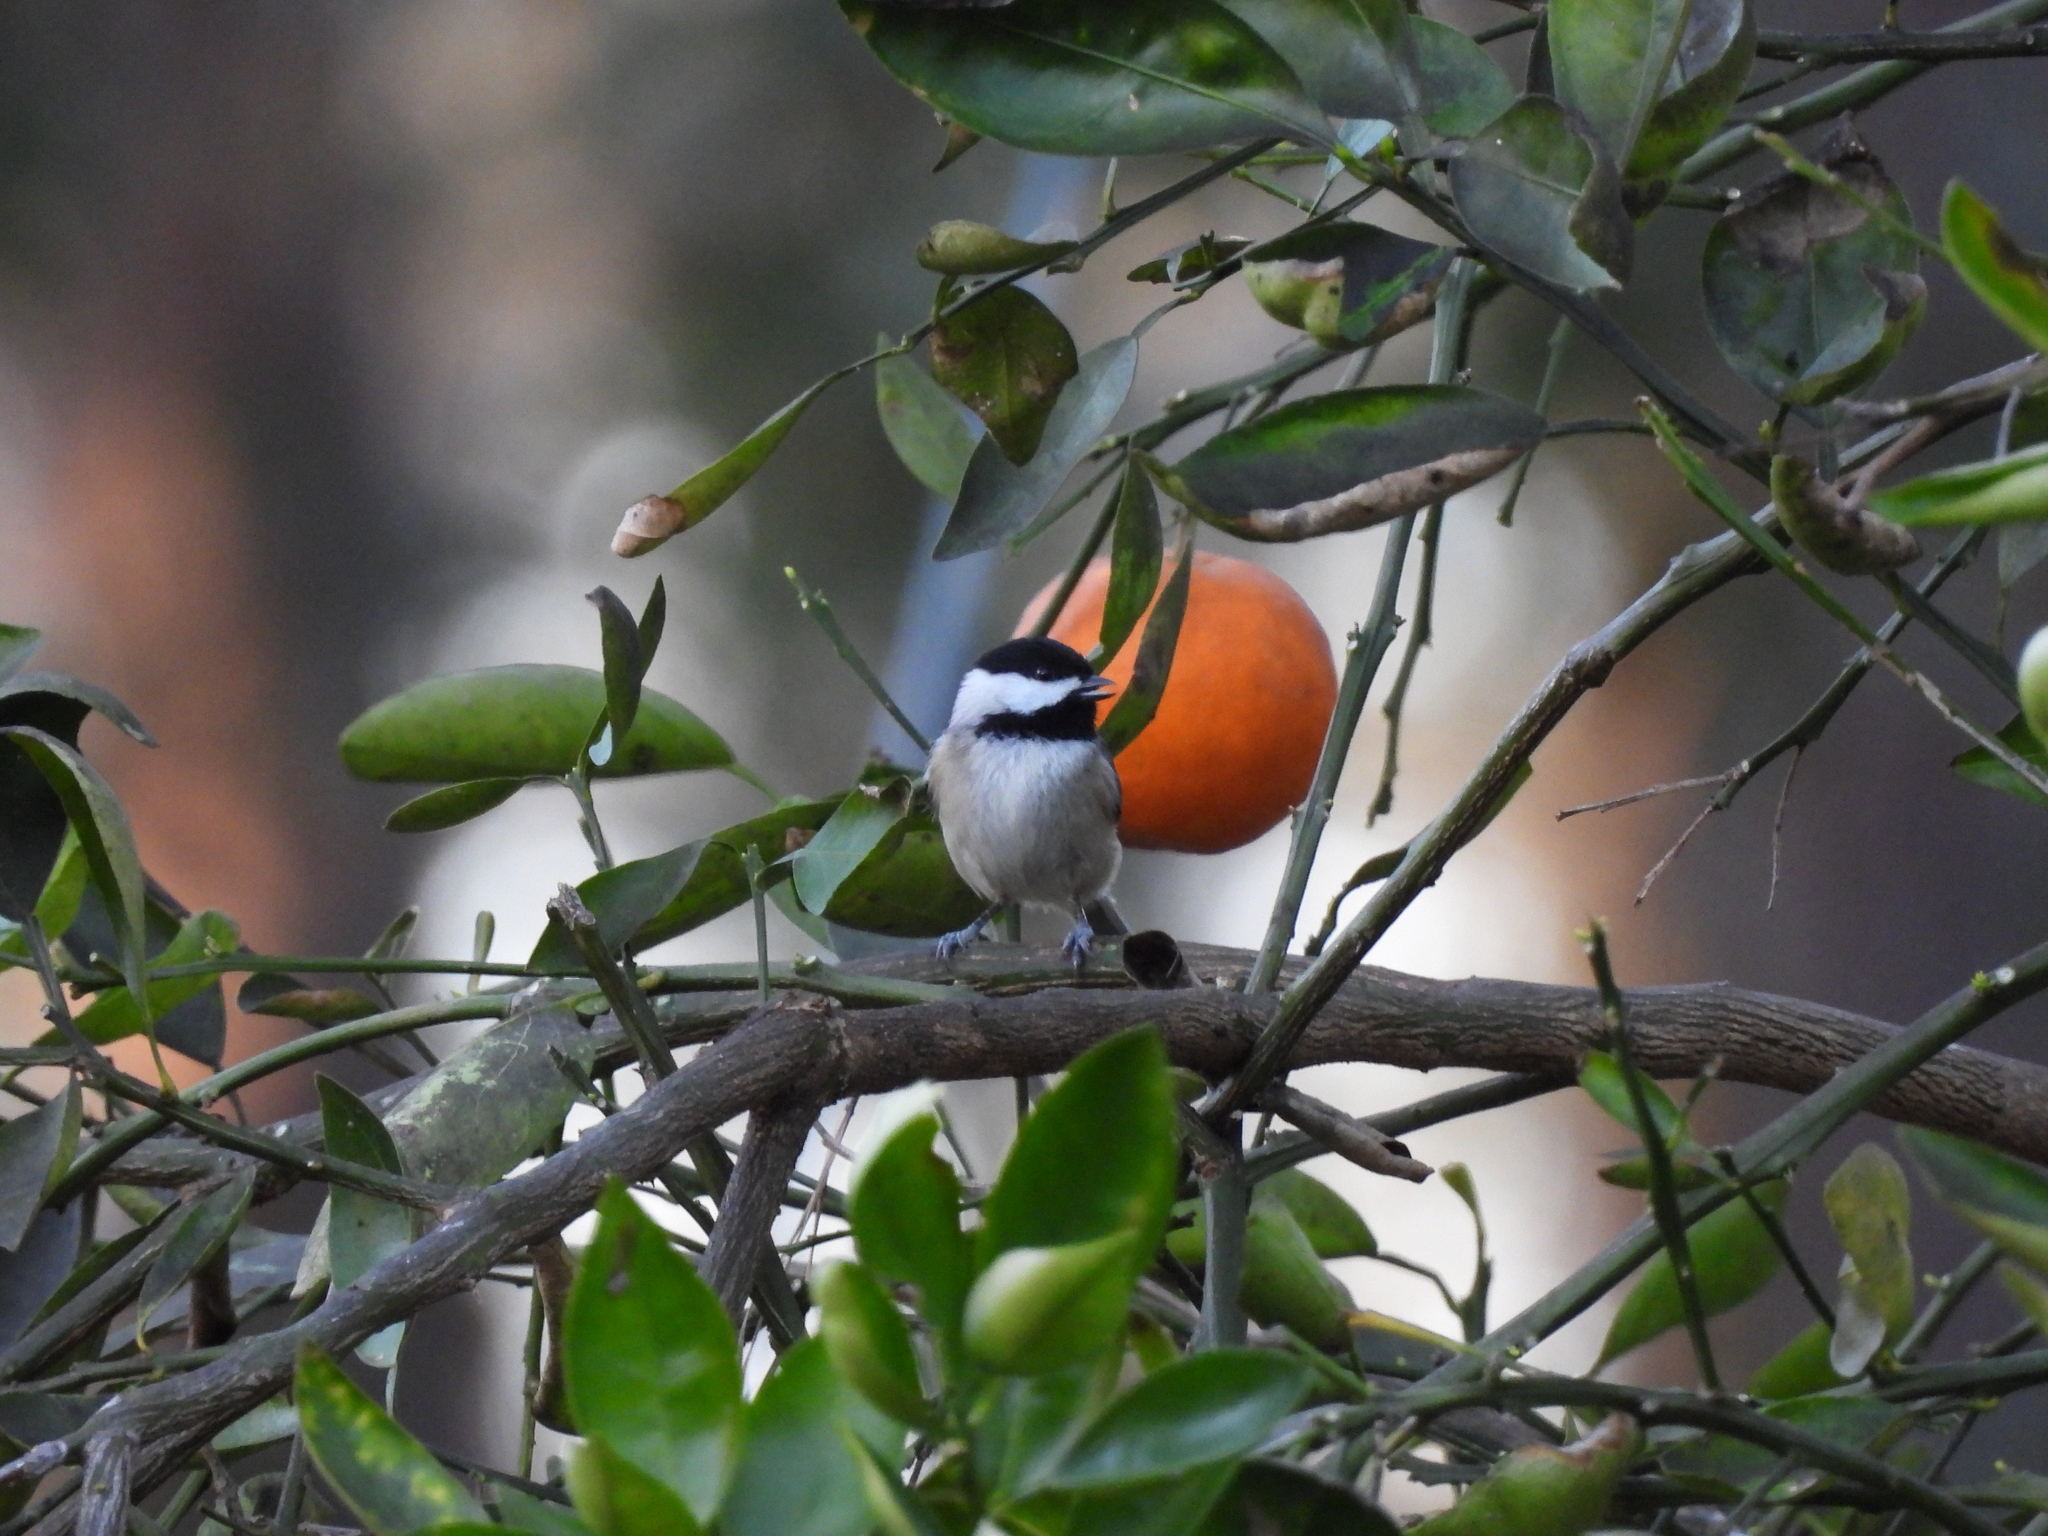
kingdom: Animalia
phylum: Chordata
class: Aves
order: Passeriformes
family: Paridae
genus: Poecile
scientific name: Poecile carolinensis
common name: Carolina chickadee
